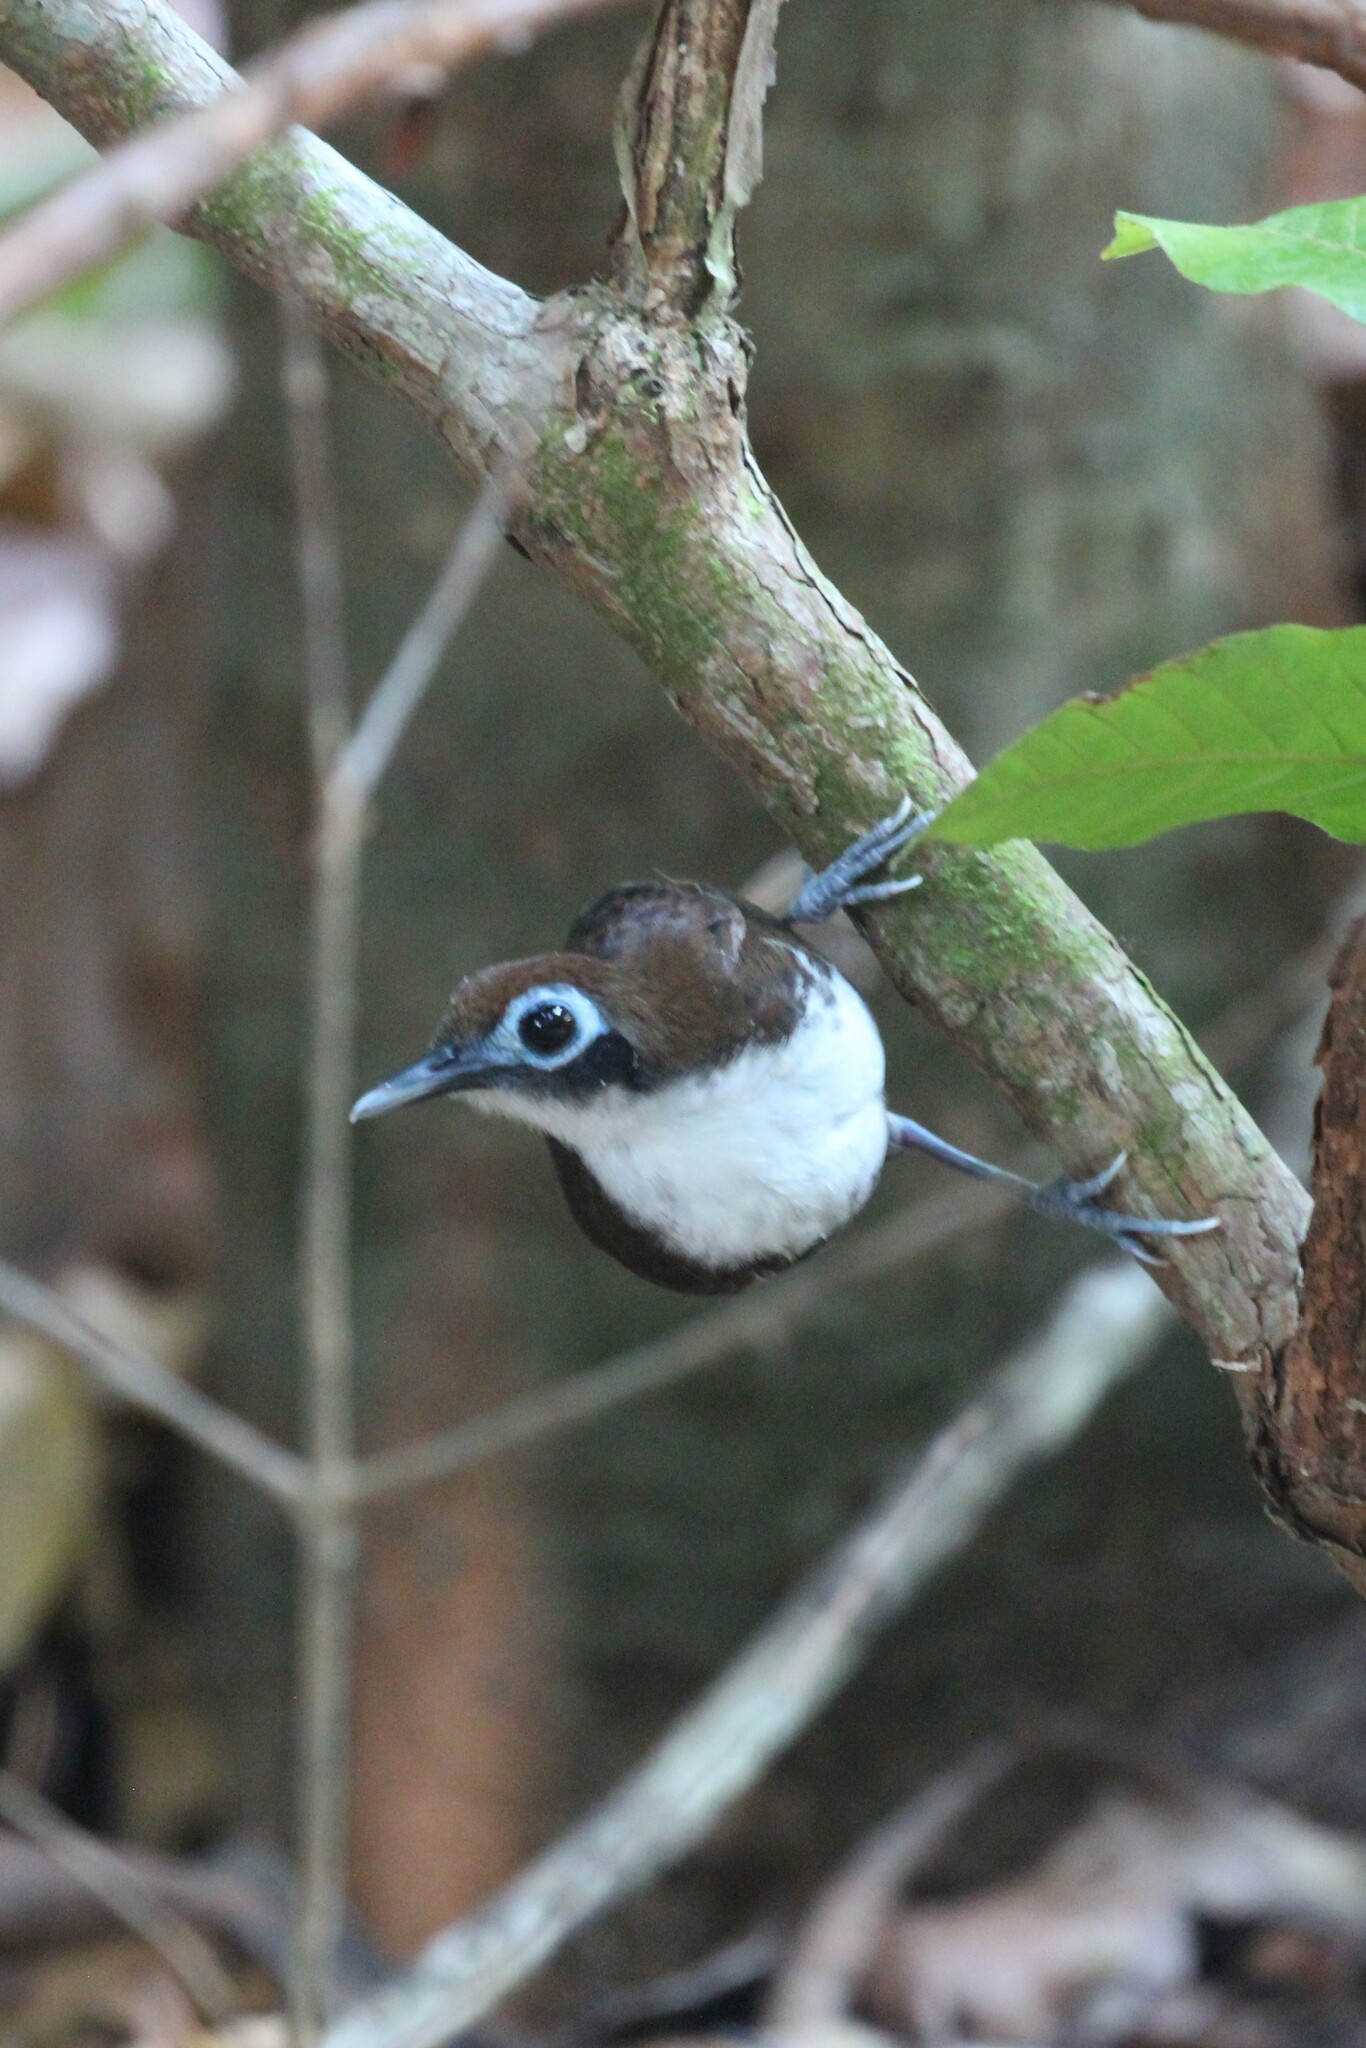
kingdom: Animalia
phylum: Chordata
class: Aves
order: Passeriformes
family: Thamnophilidae
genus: Gymnopithys
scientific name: Gymnopithys leucaspis
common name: White-cheeked antbird
